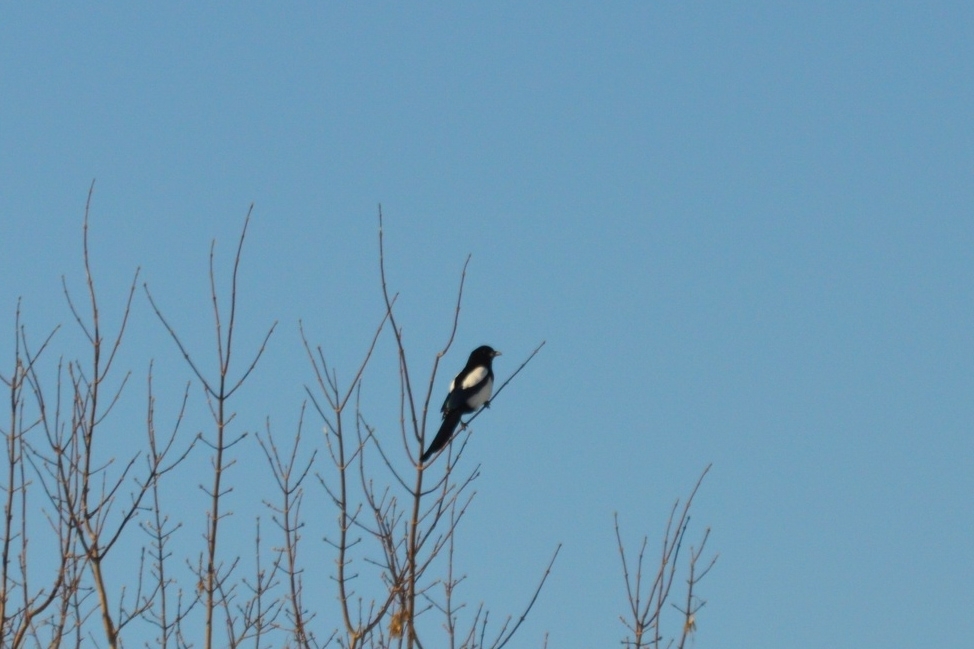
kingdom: Animalia
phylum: Chordata
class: Aves
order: Passeriformes
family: Corvidae
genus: Pica
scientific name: Pica pica
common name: Eurasian magpie
